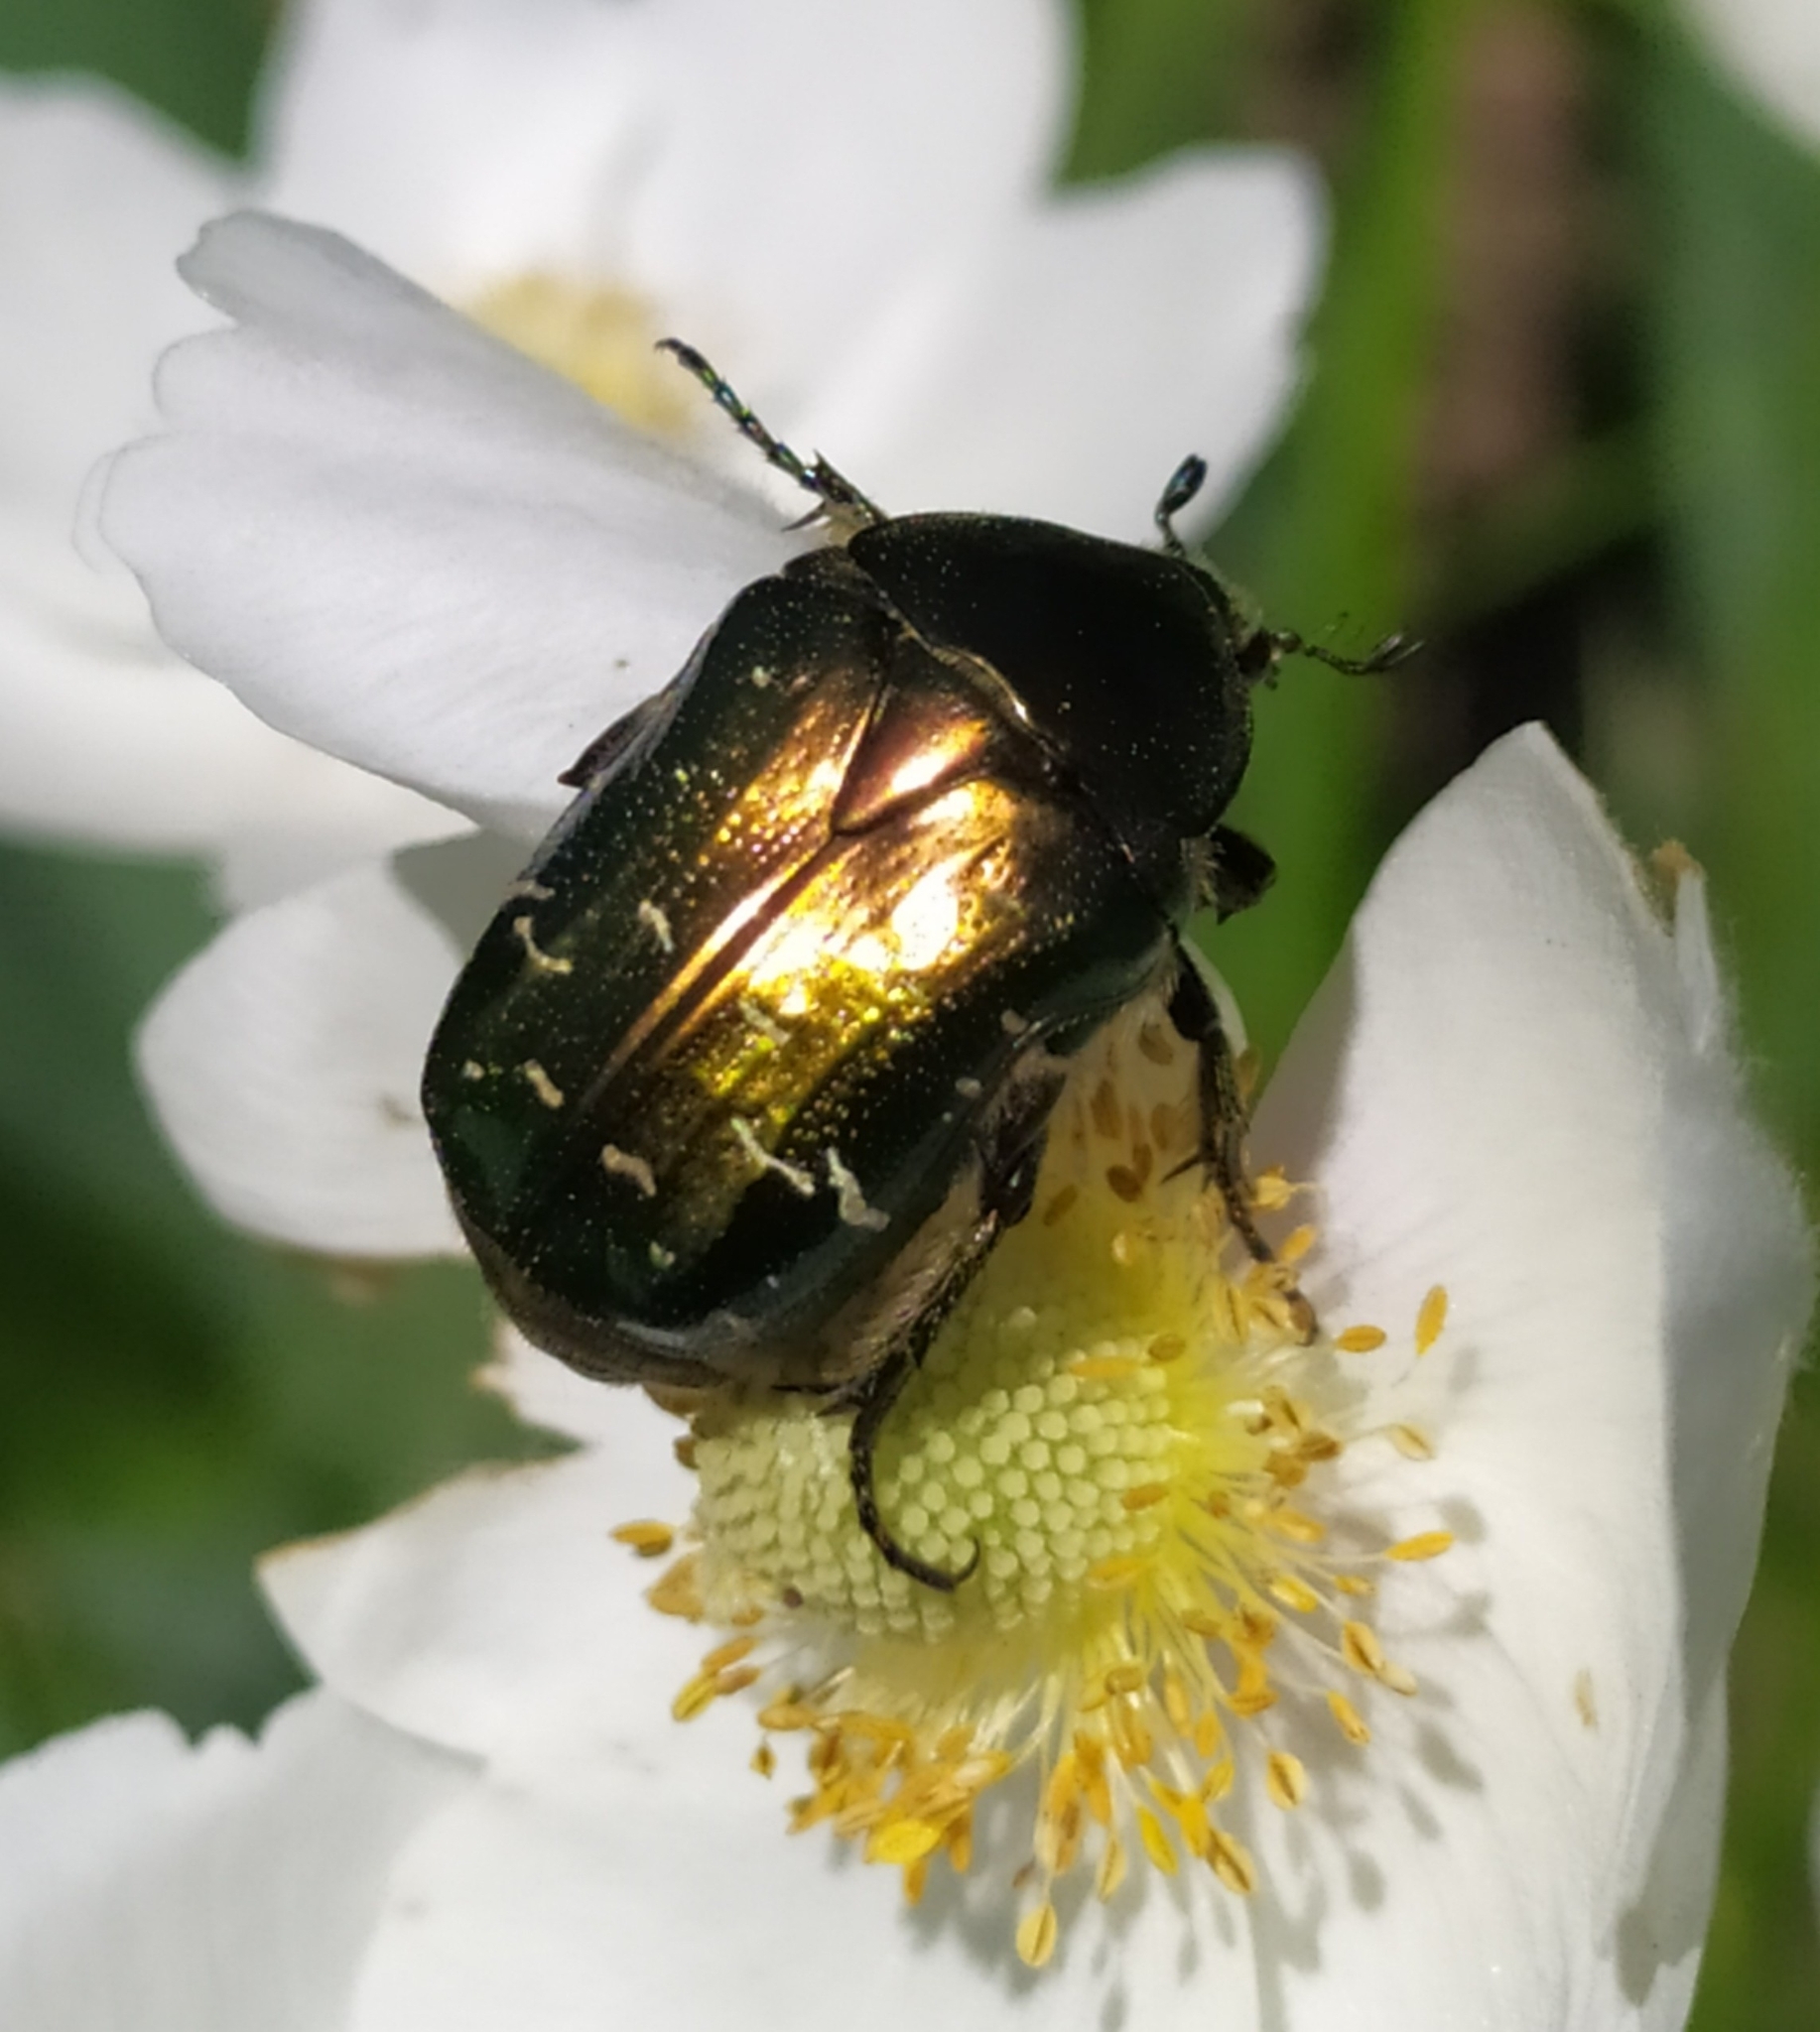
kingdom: Animalia
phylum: Arthropoda
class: Insecta
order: Coleoptera
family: Scarabaeidae
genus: Cetonia
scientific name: Cetonia aurata
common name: Rose chafer
